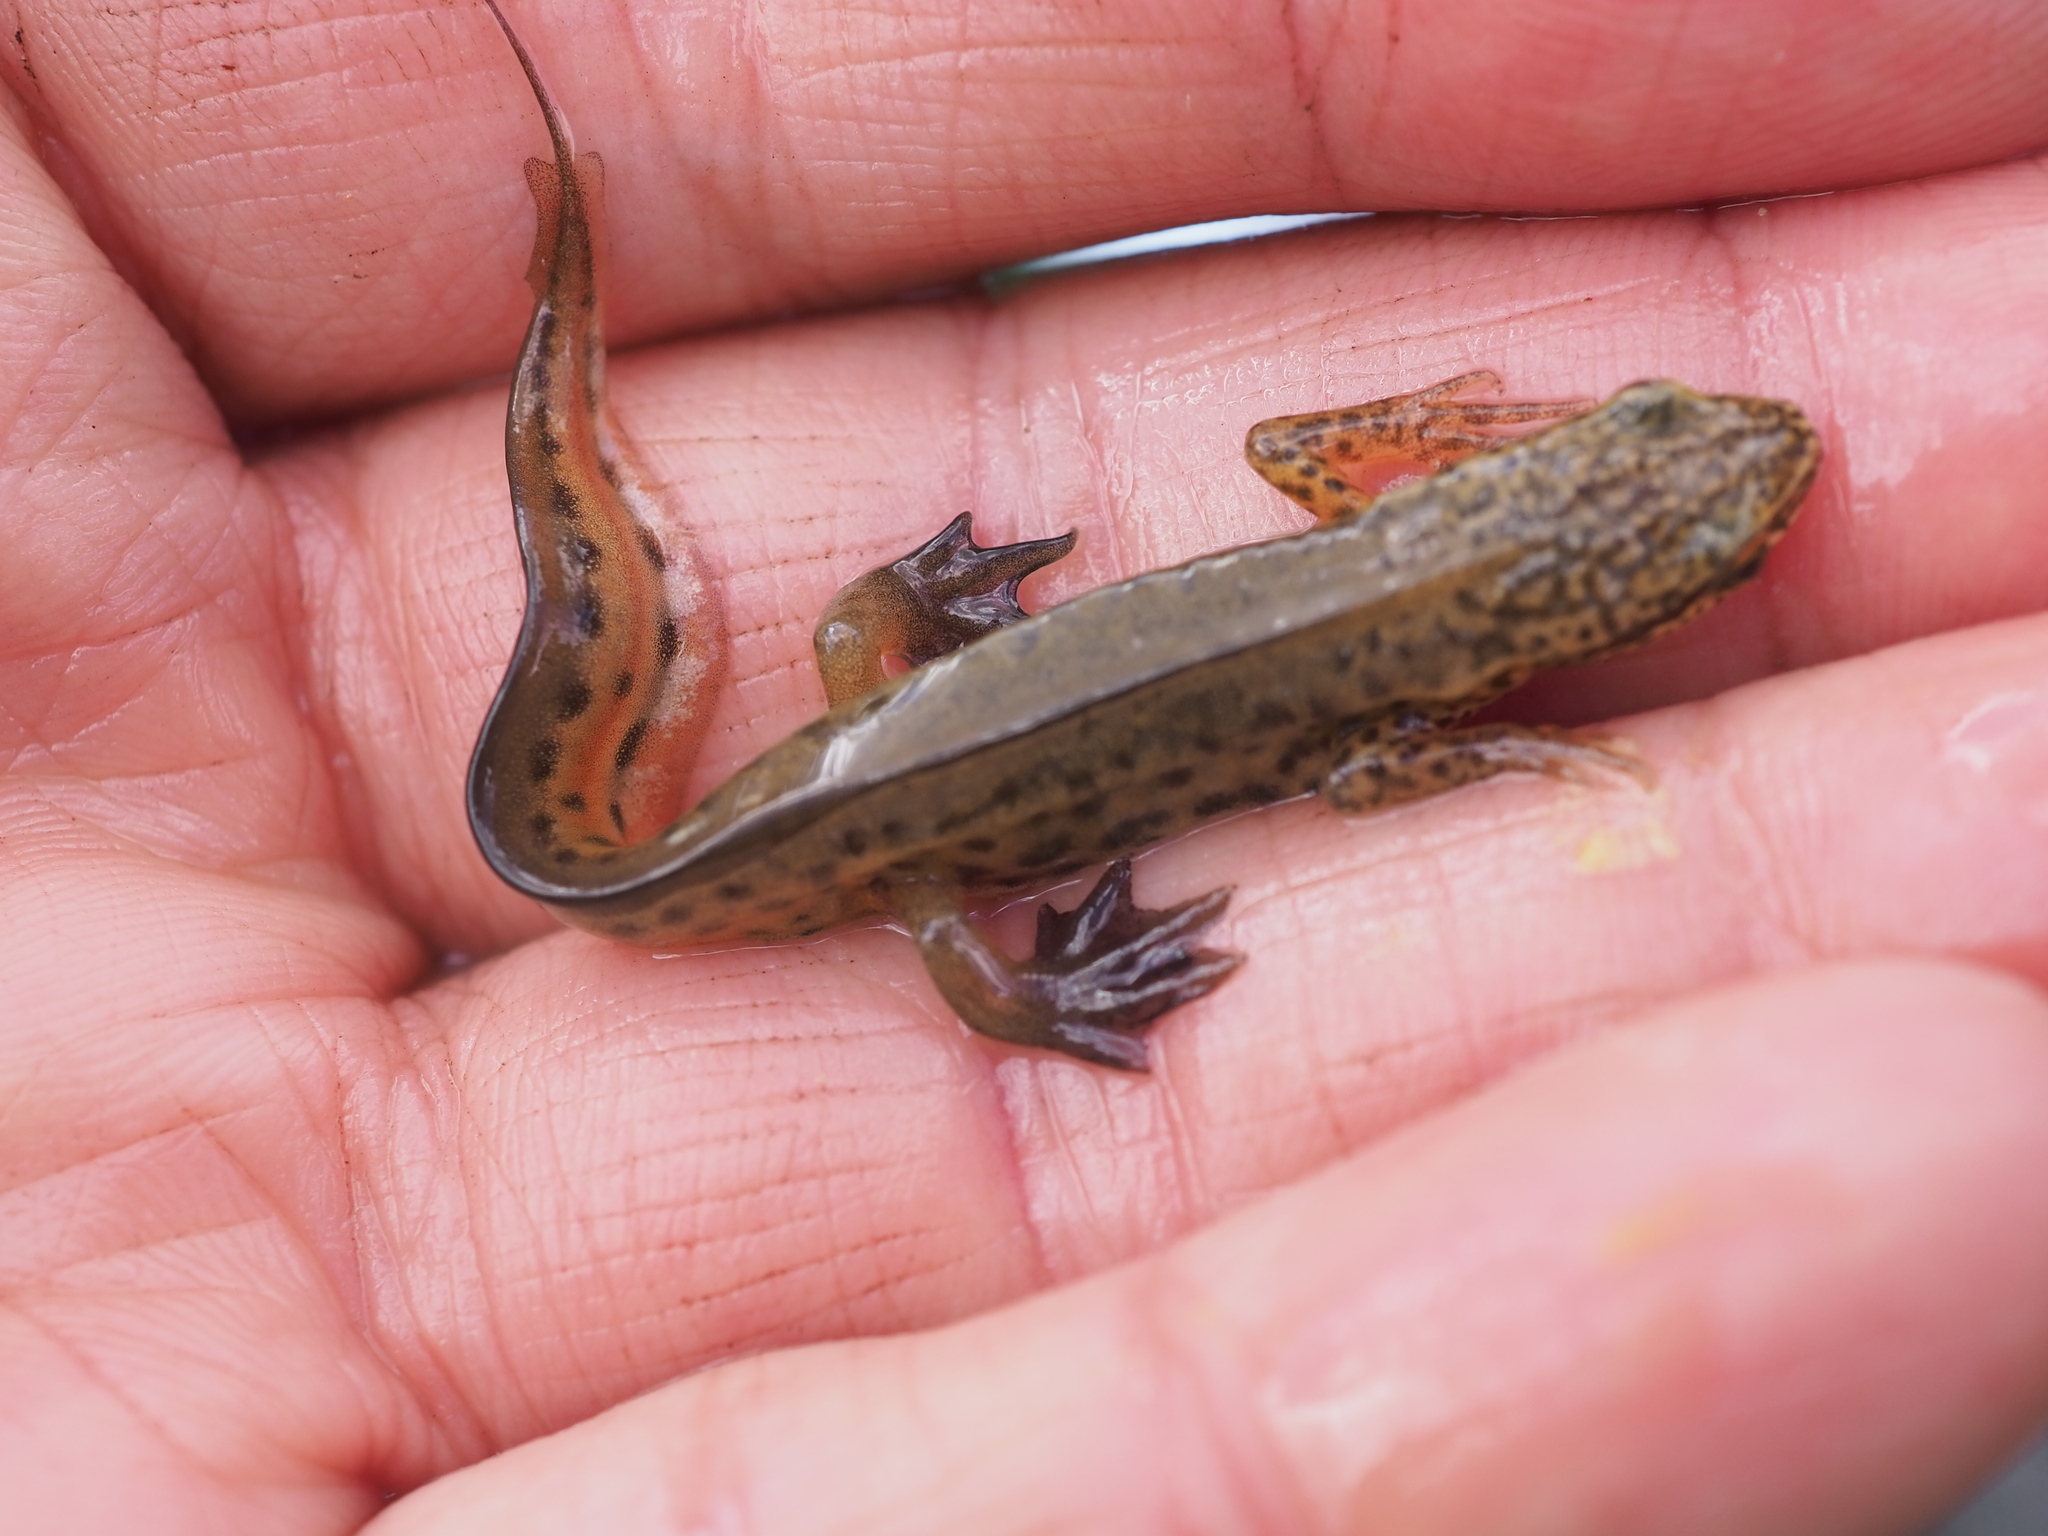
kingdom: Animalia
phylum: Chordata
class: Amphibia
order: Caudata
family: Salamandridae
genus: Lissotriton
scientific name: Lissotriton helveticus
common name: Palmate newt
